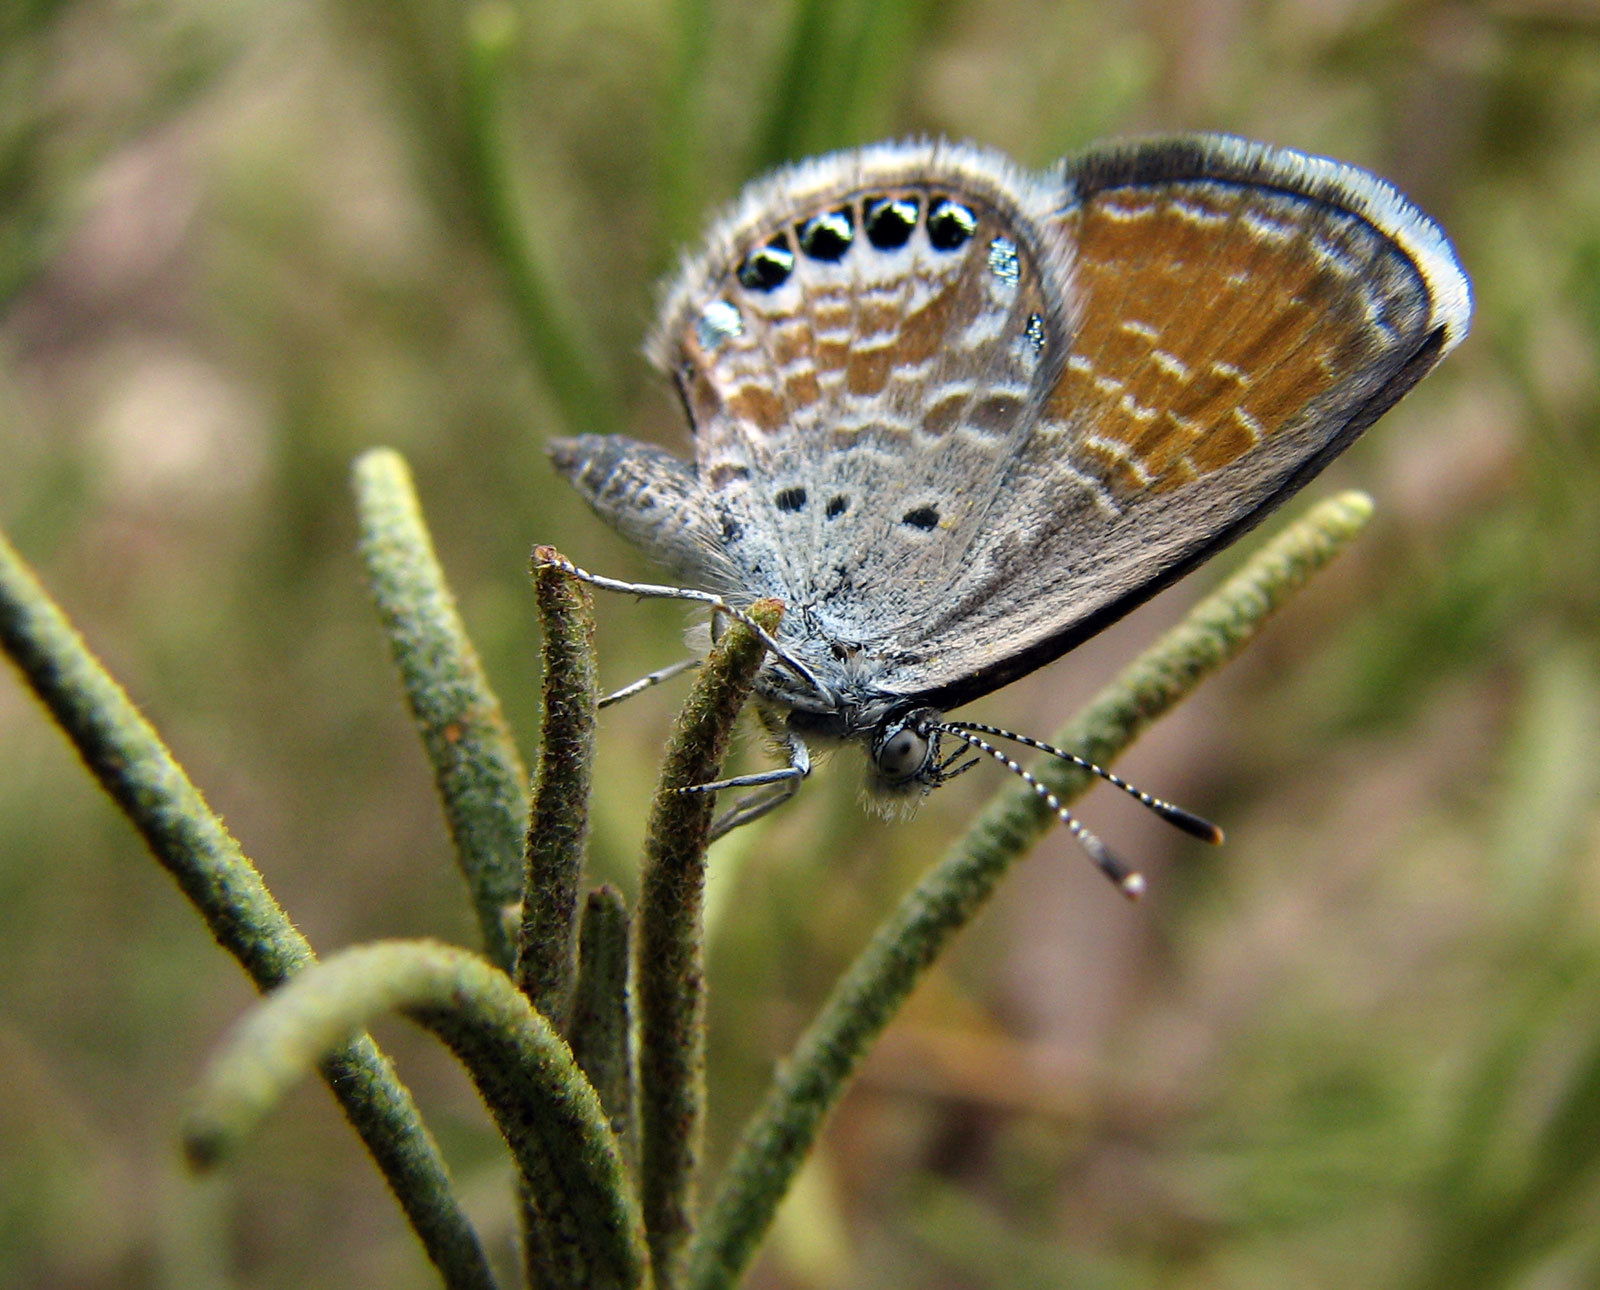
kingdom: Animalia
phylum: Arthropoda
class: Insecta
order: Lepidoptera
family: Lycaenidae
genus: Brephidium
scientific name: Brephidium exilis
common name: Pygmy blue
